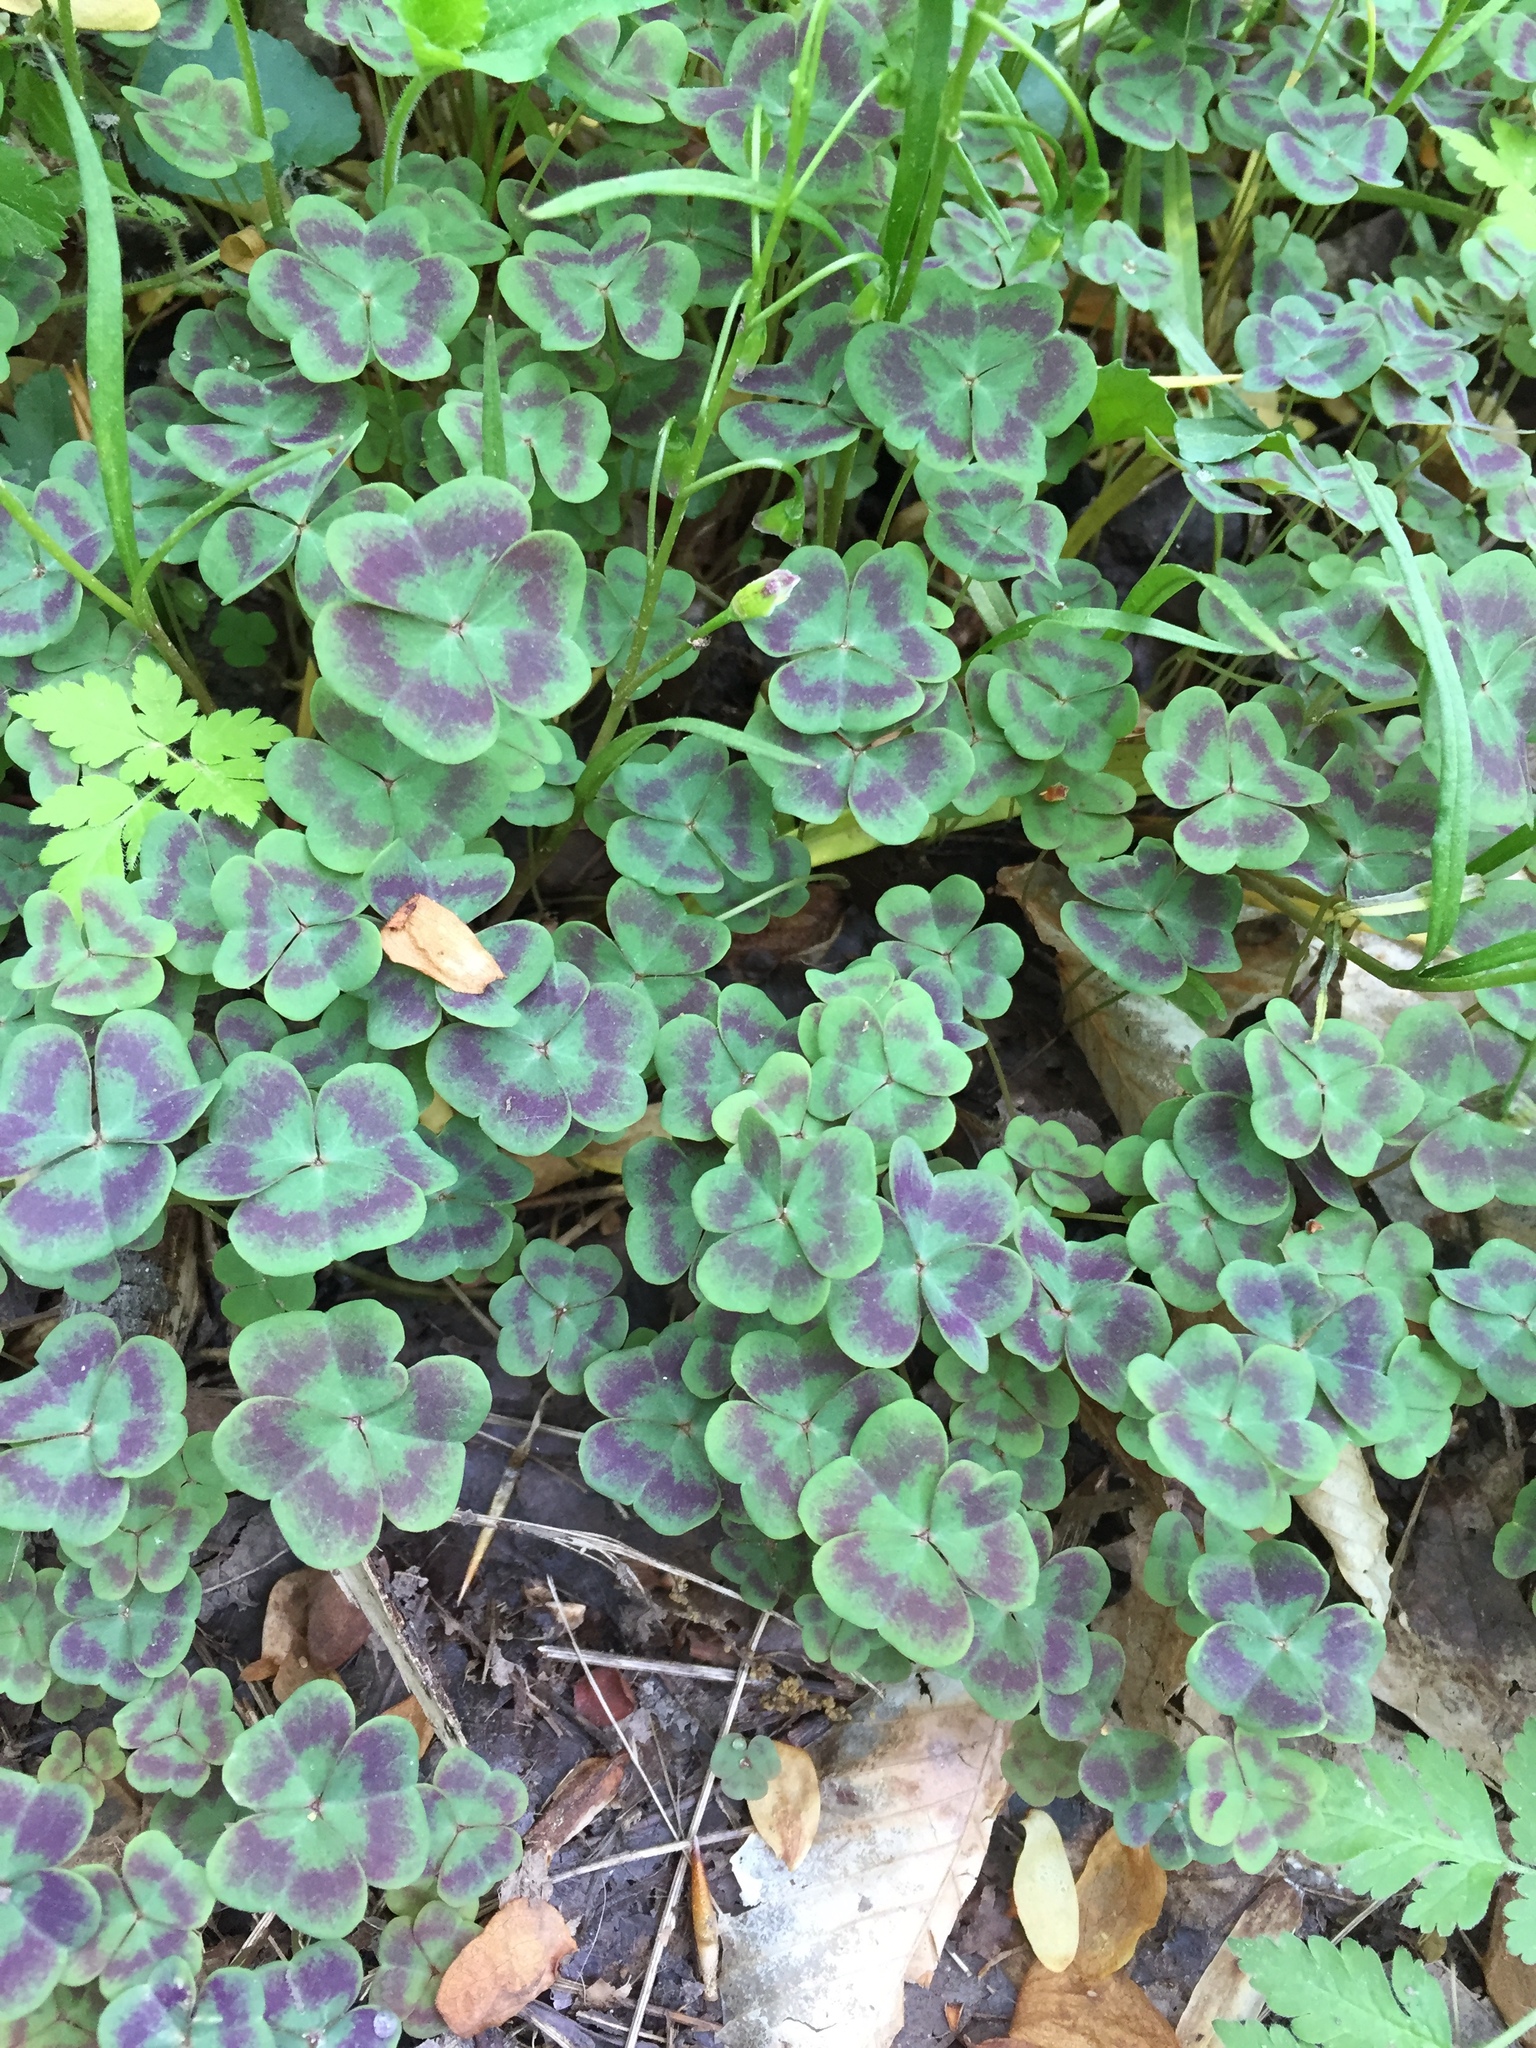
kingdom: Plantae
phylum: Tracheophyta
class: Magnoliopsida
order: Oxalidales
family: Oxalidaceae
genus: Oxalis
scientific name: Oxalis violacea
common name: Violet wood-sorrel
